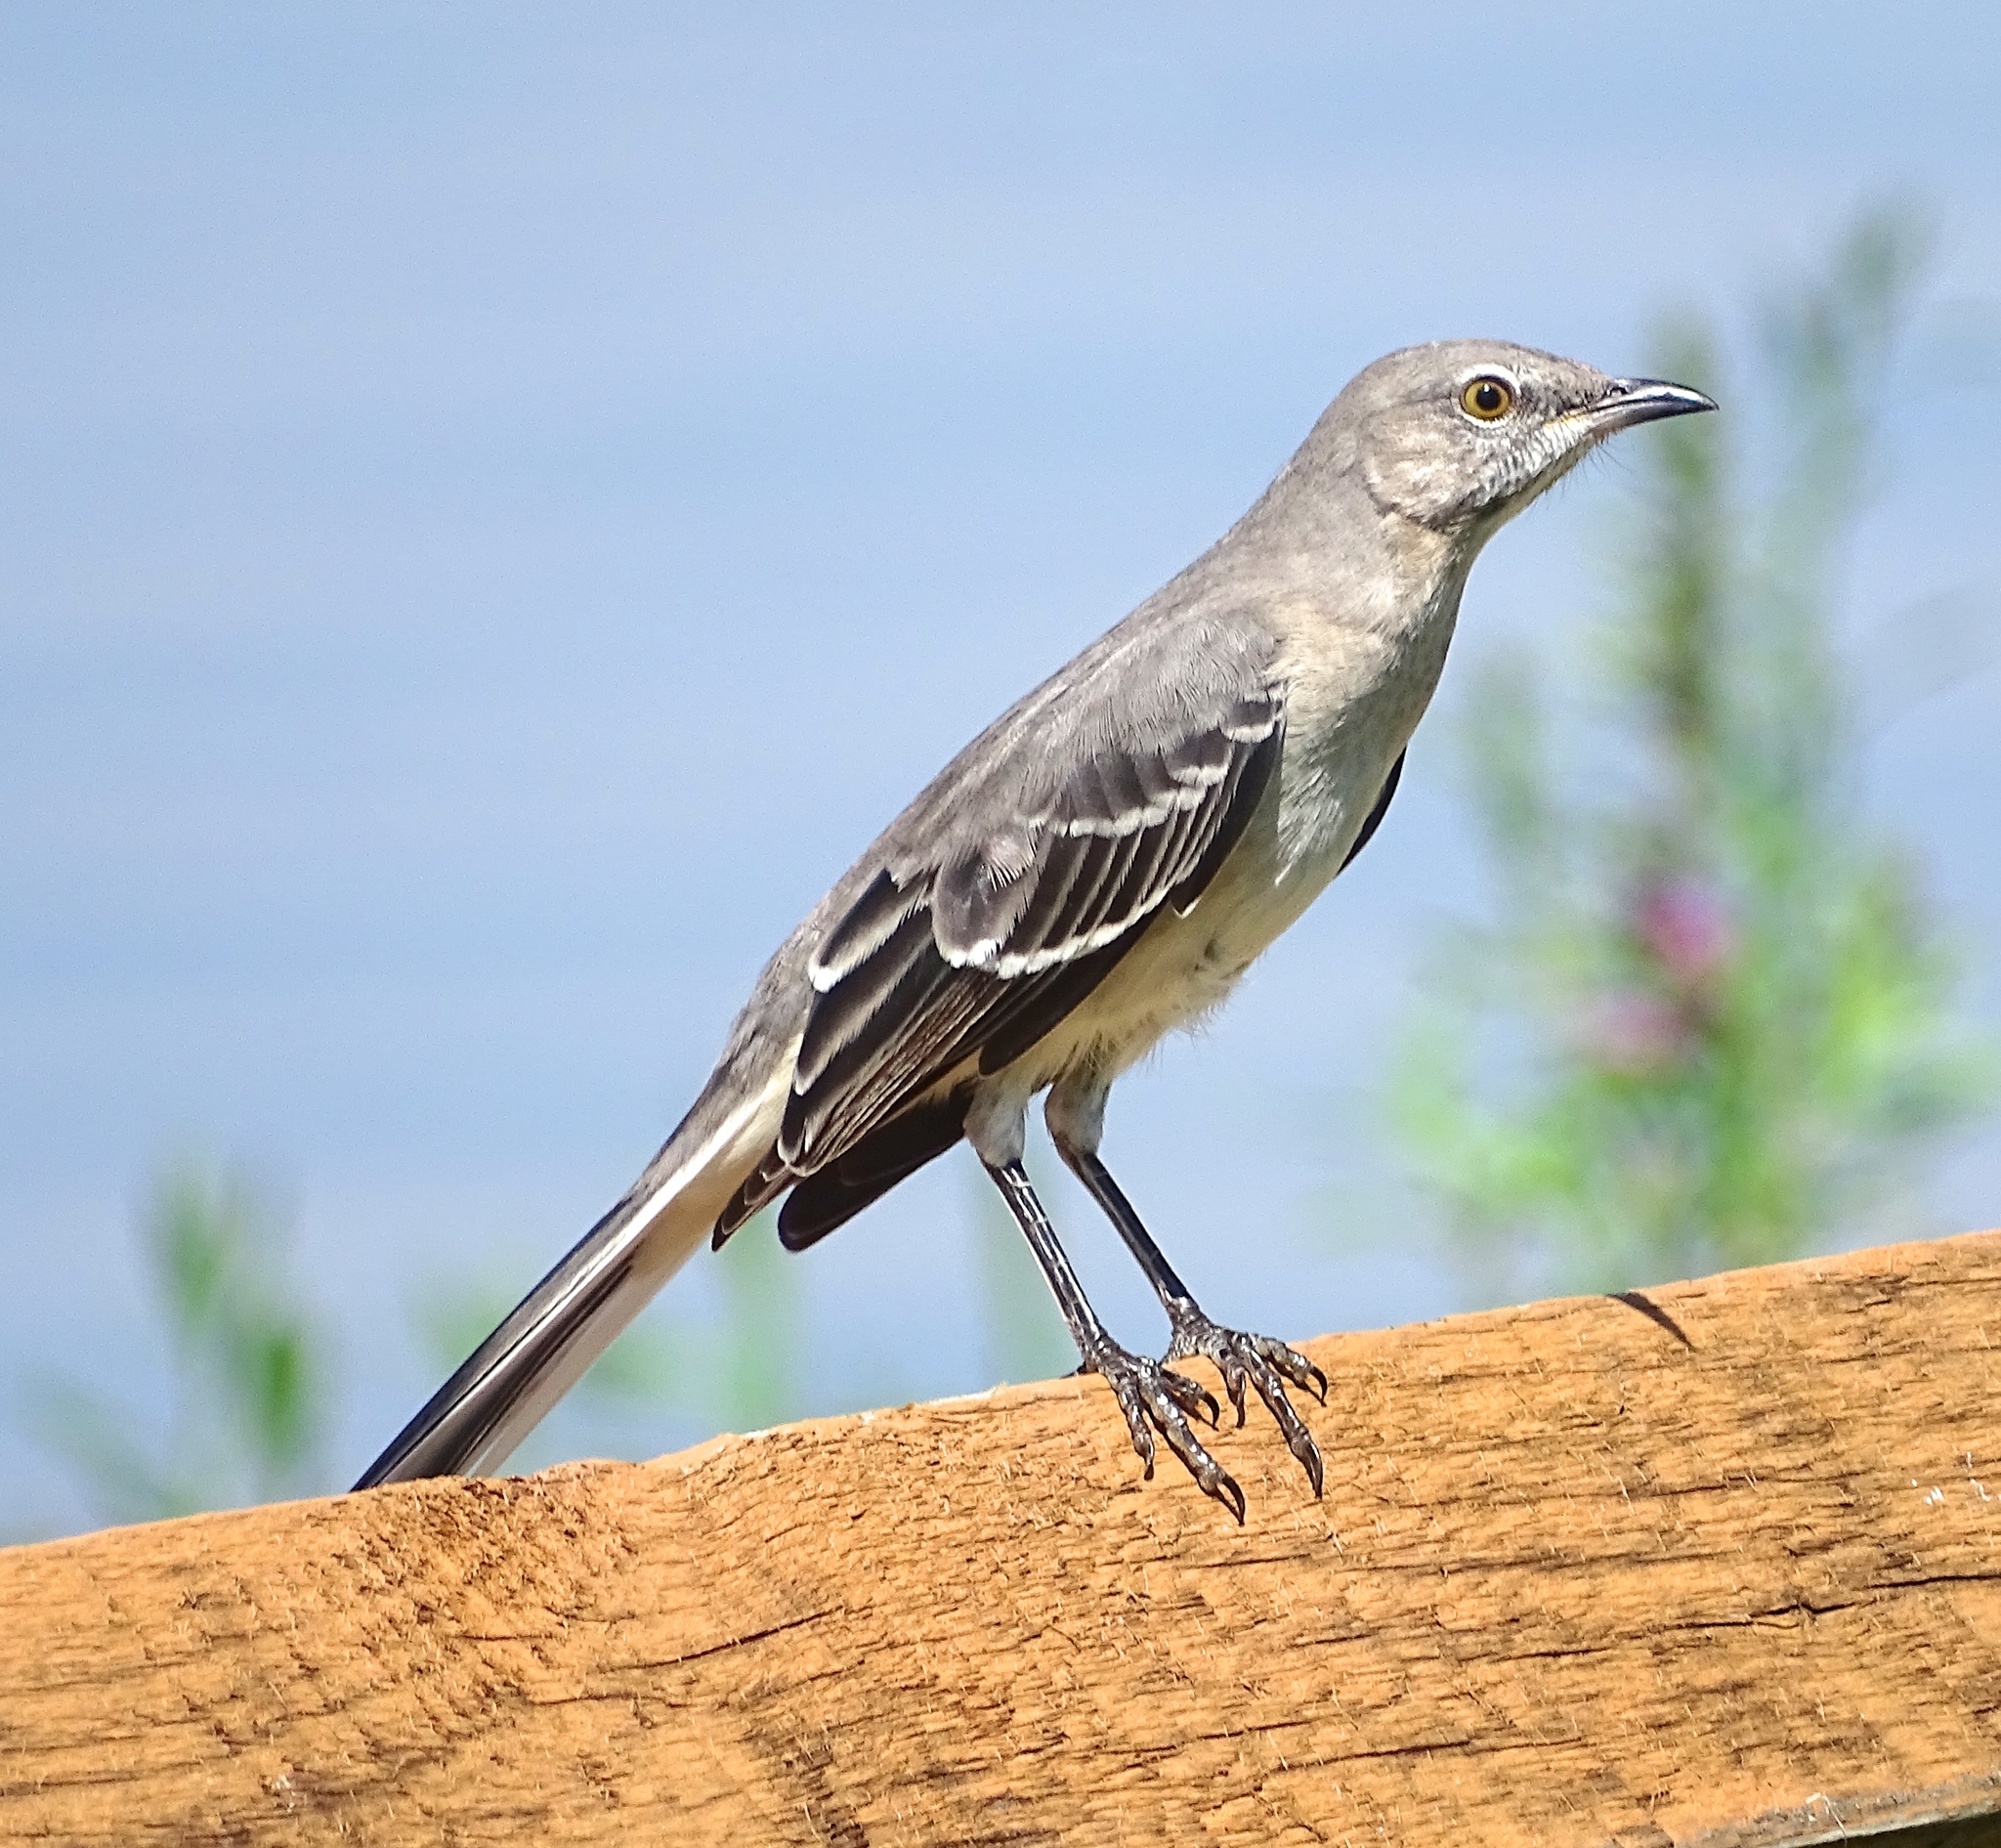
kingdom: Animalia
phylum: Chordata
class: Aves
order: Passeriformes
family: Mimidae
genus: Mimus
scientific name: Mimus polyglottos
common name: Northern mockingbird
